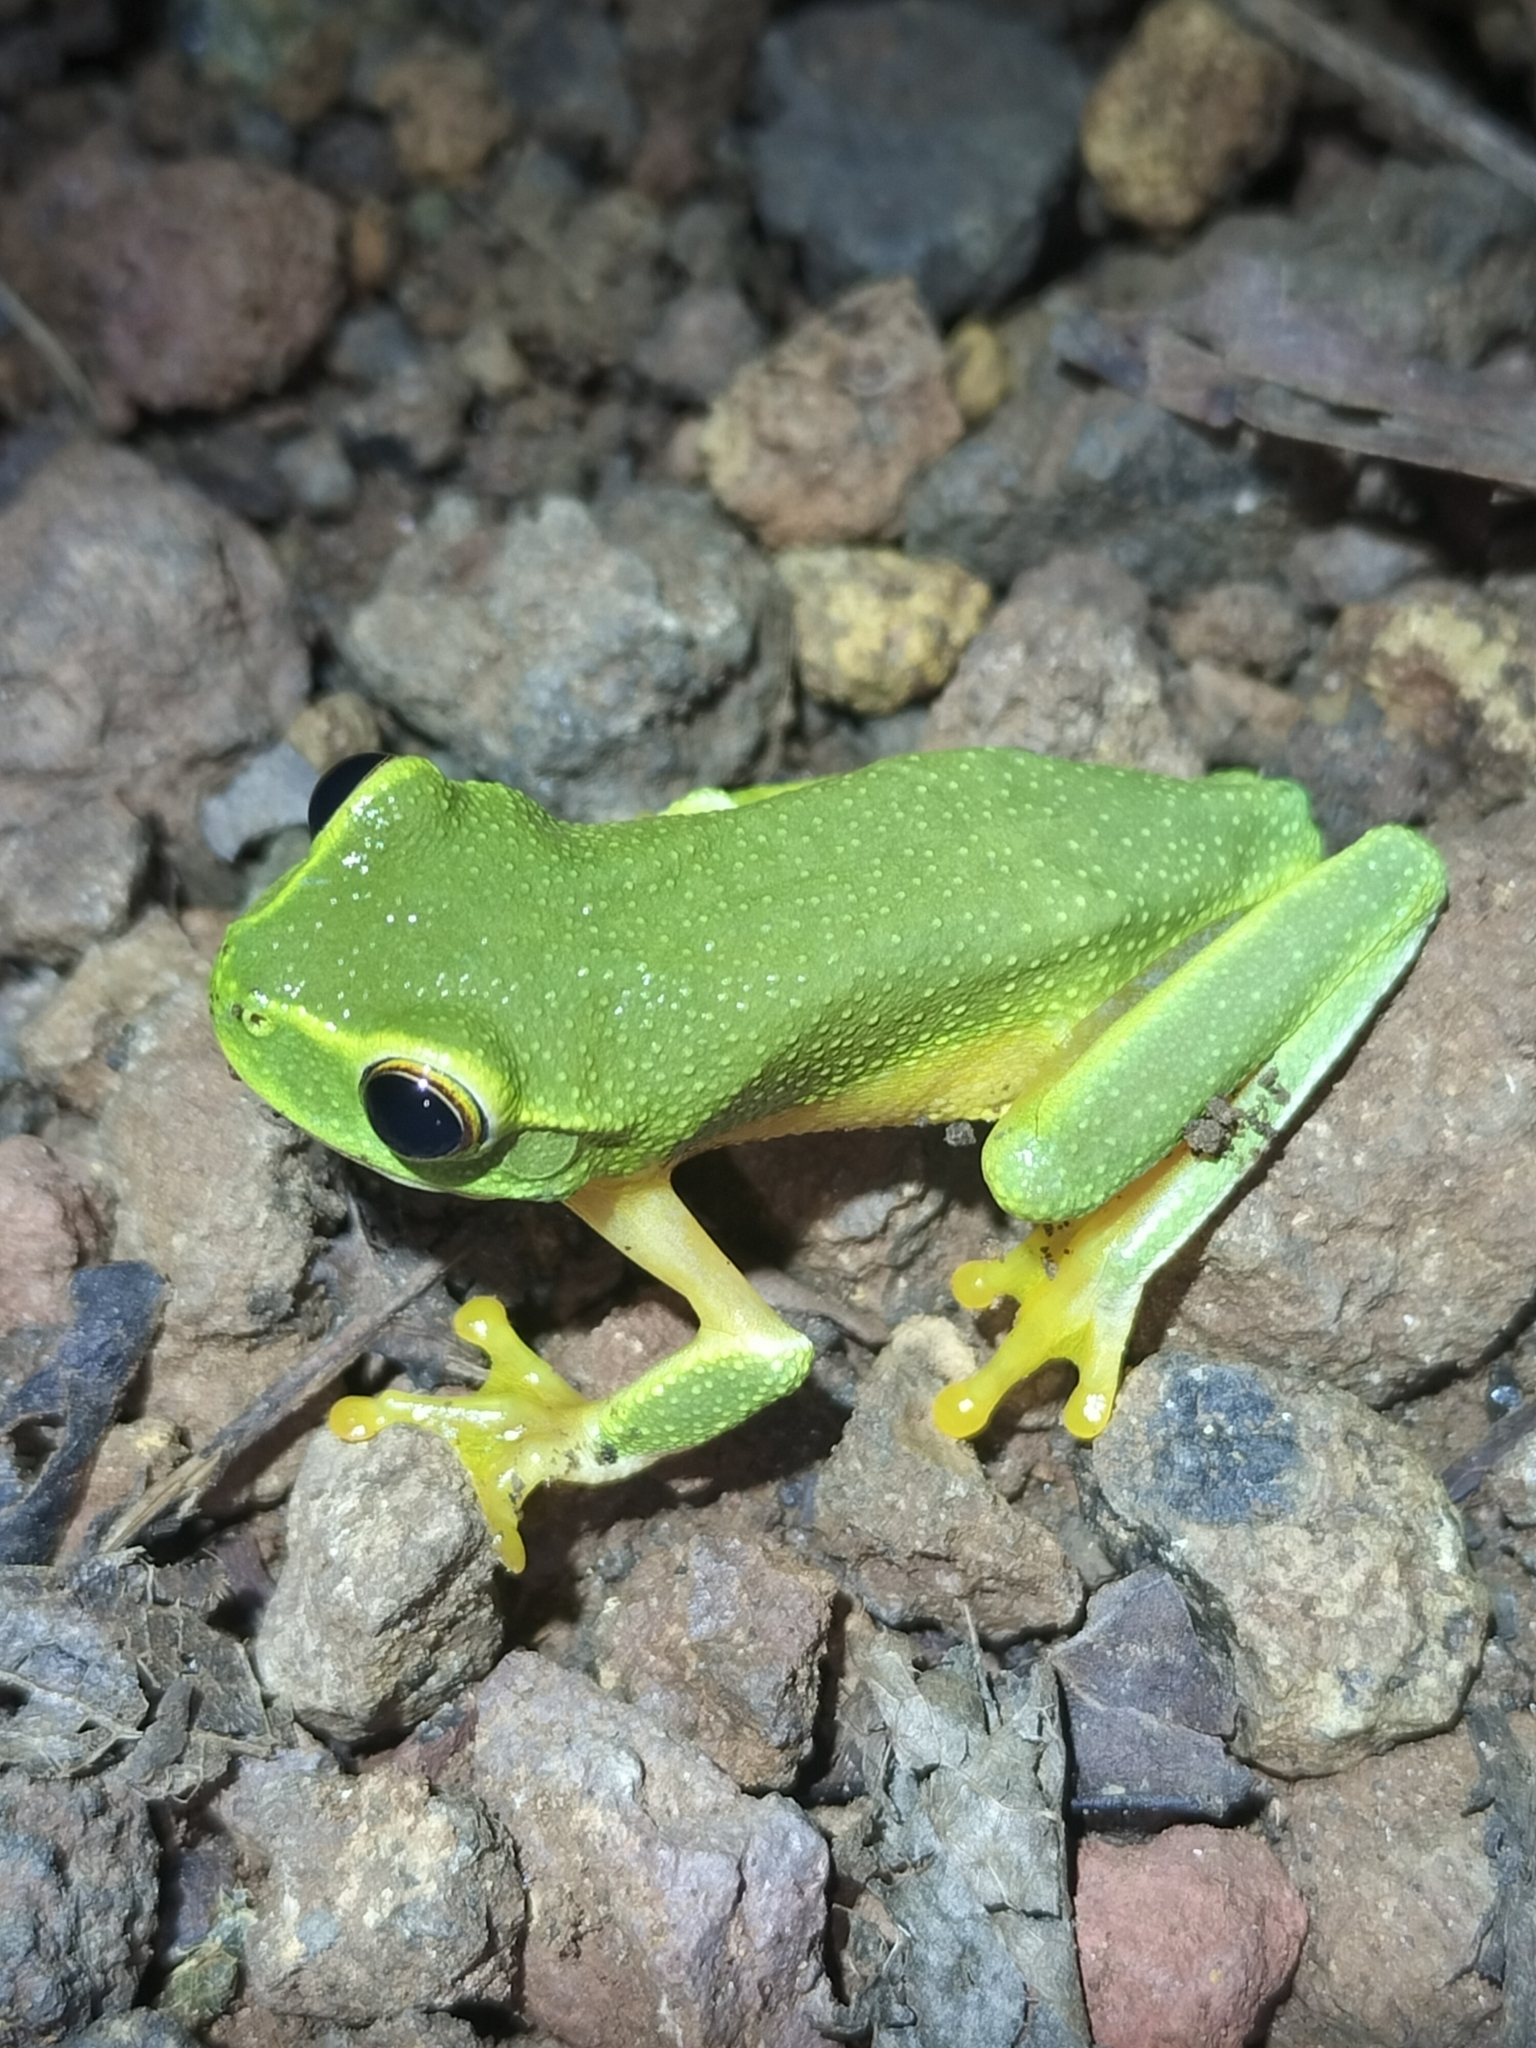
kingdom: Animalia
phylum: Chordata
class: Amphibia
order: Anura
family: Pelodryadidae
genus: Ranoidea
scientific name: Ranoidea gracilenta
